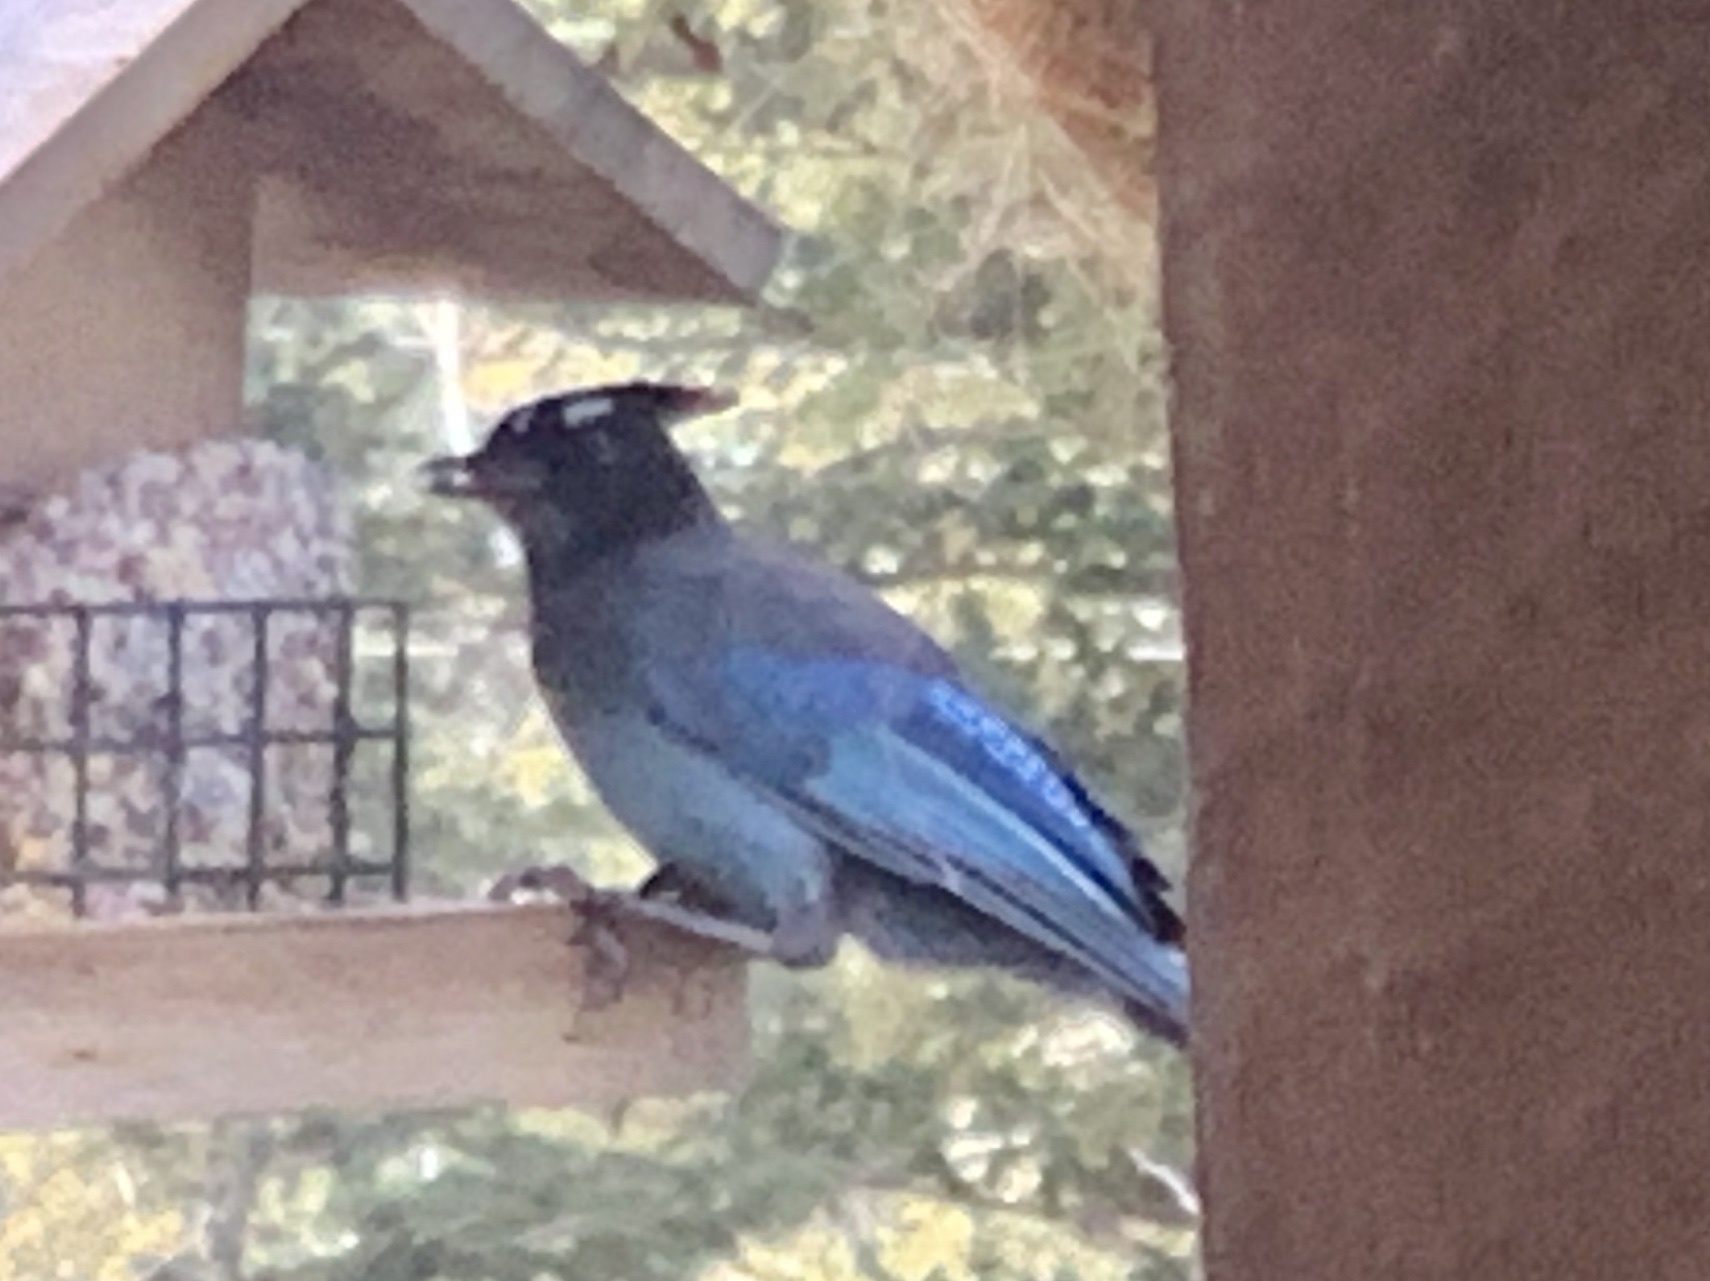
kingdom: Animalia
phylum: Chordata
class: Aves
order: Passeriformes
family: Corvidae
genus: Cyanocitta
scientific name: Cyanocitta stelleri
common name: Steller's jay
